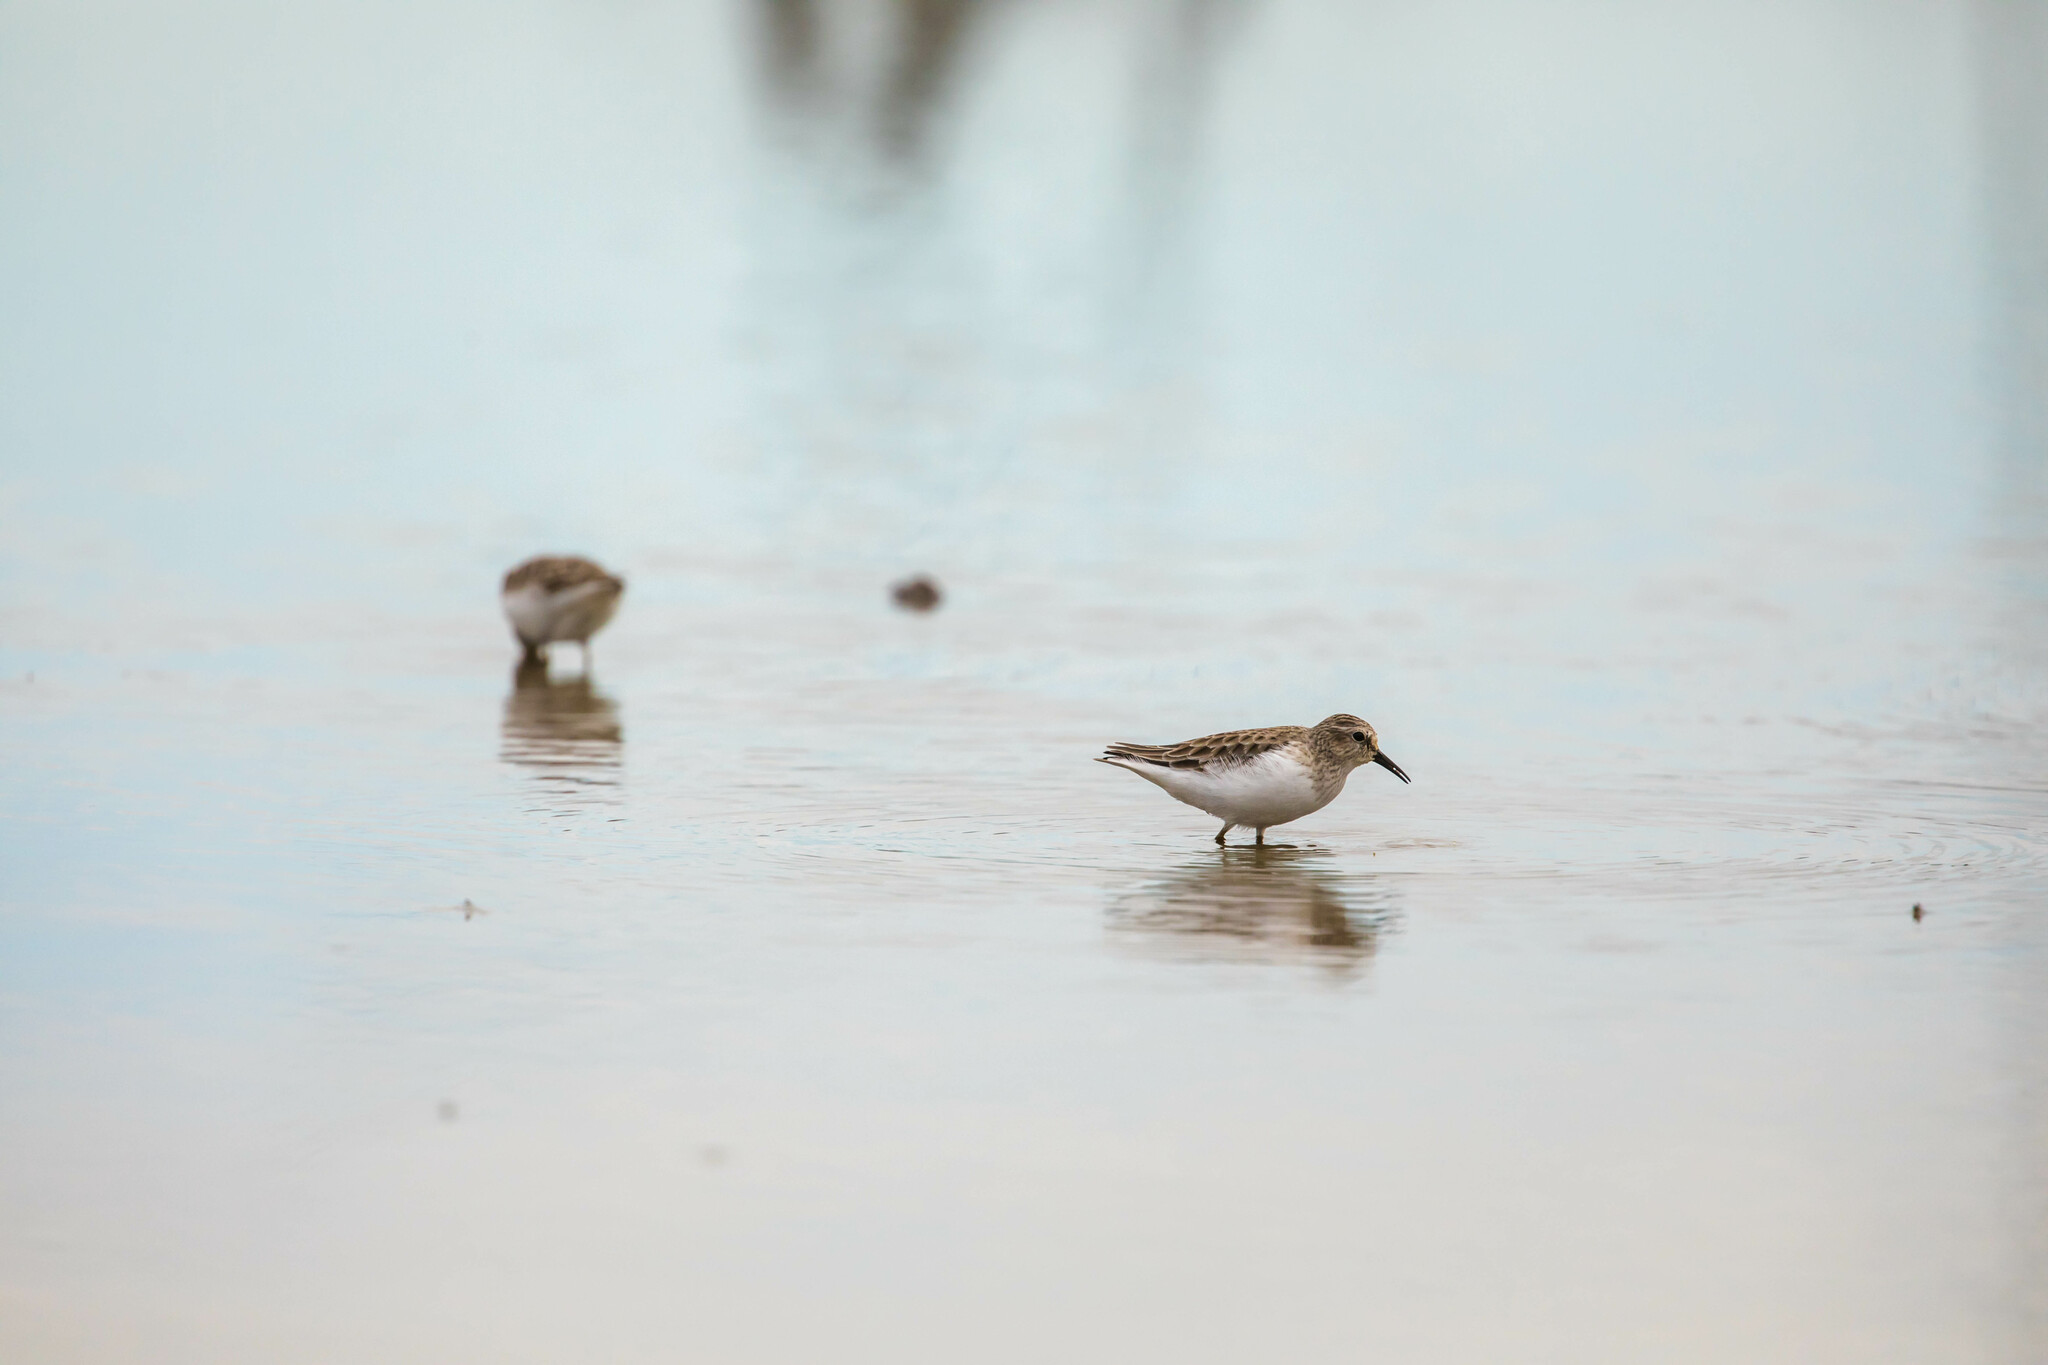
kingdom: Animalia
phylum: Chordata
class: Aves
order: Charadriiformes
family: Scolopacidae
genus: Calidris
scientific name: Calidris minutilla
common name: Least sandpiper
